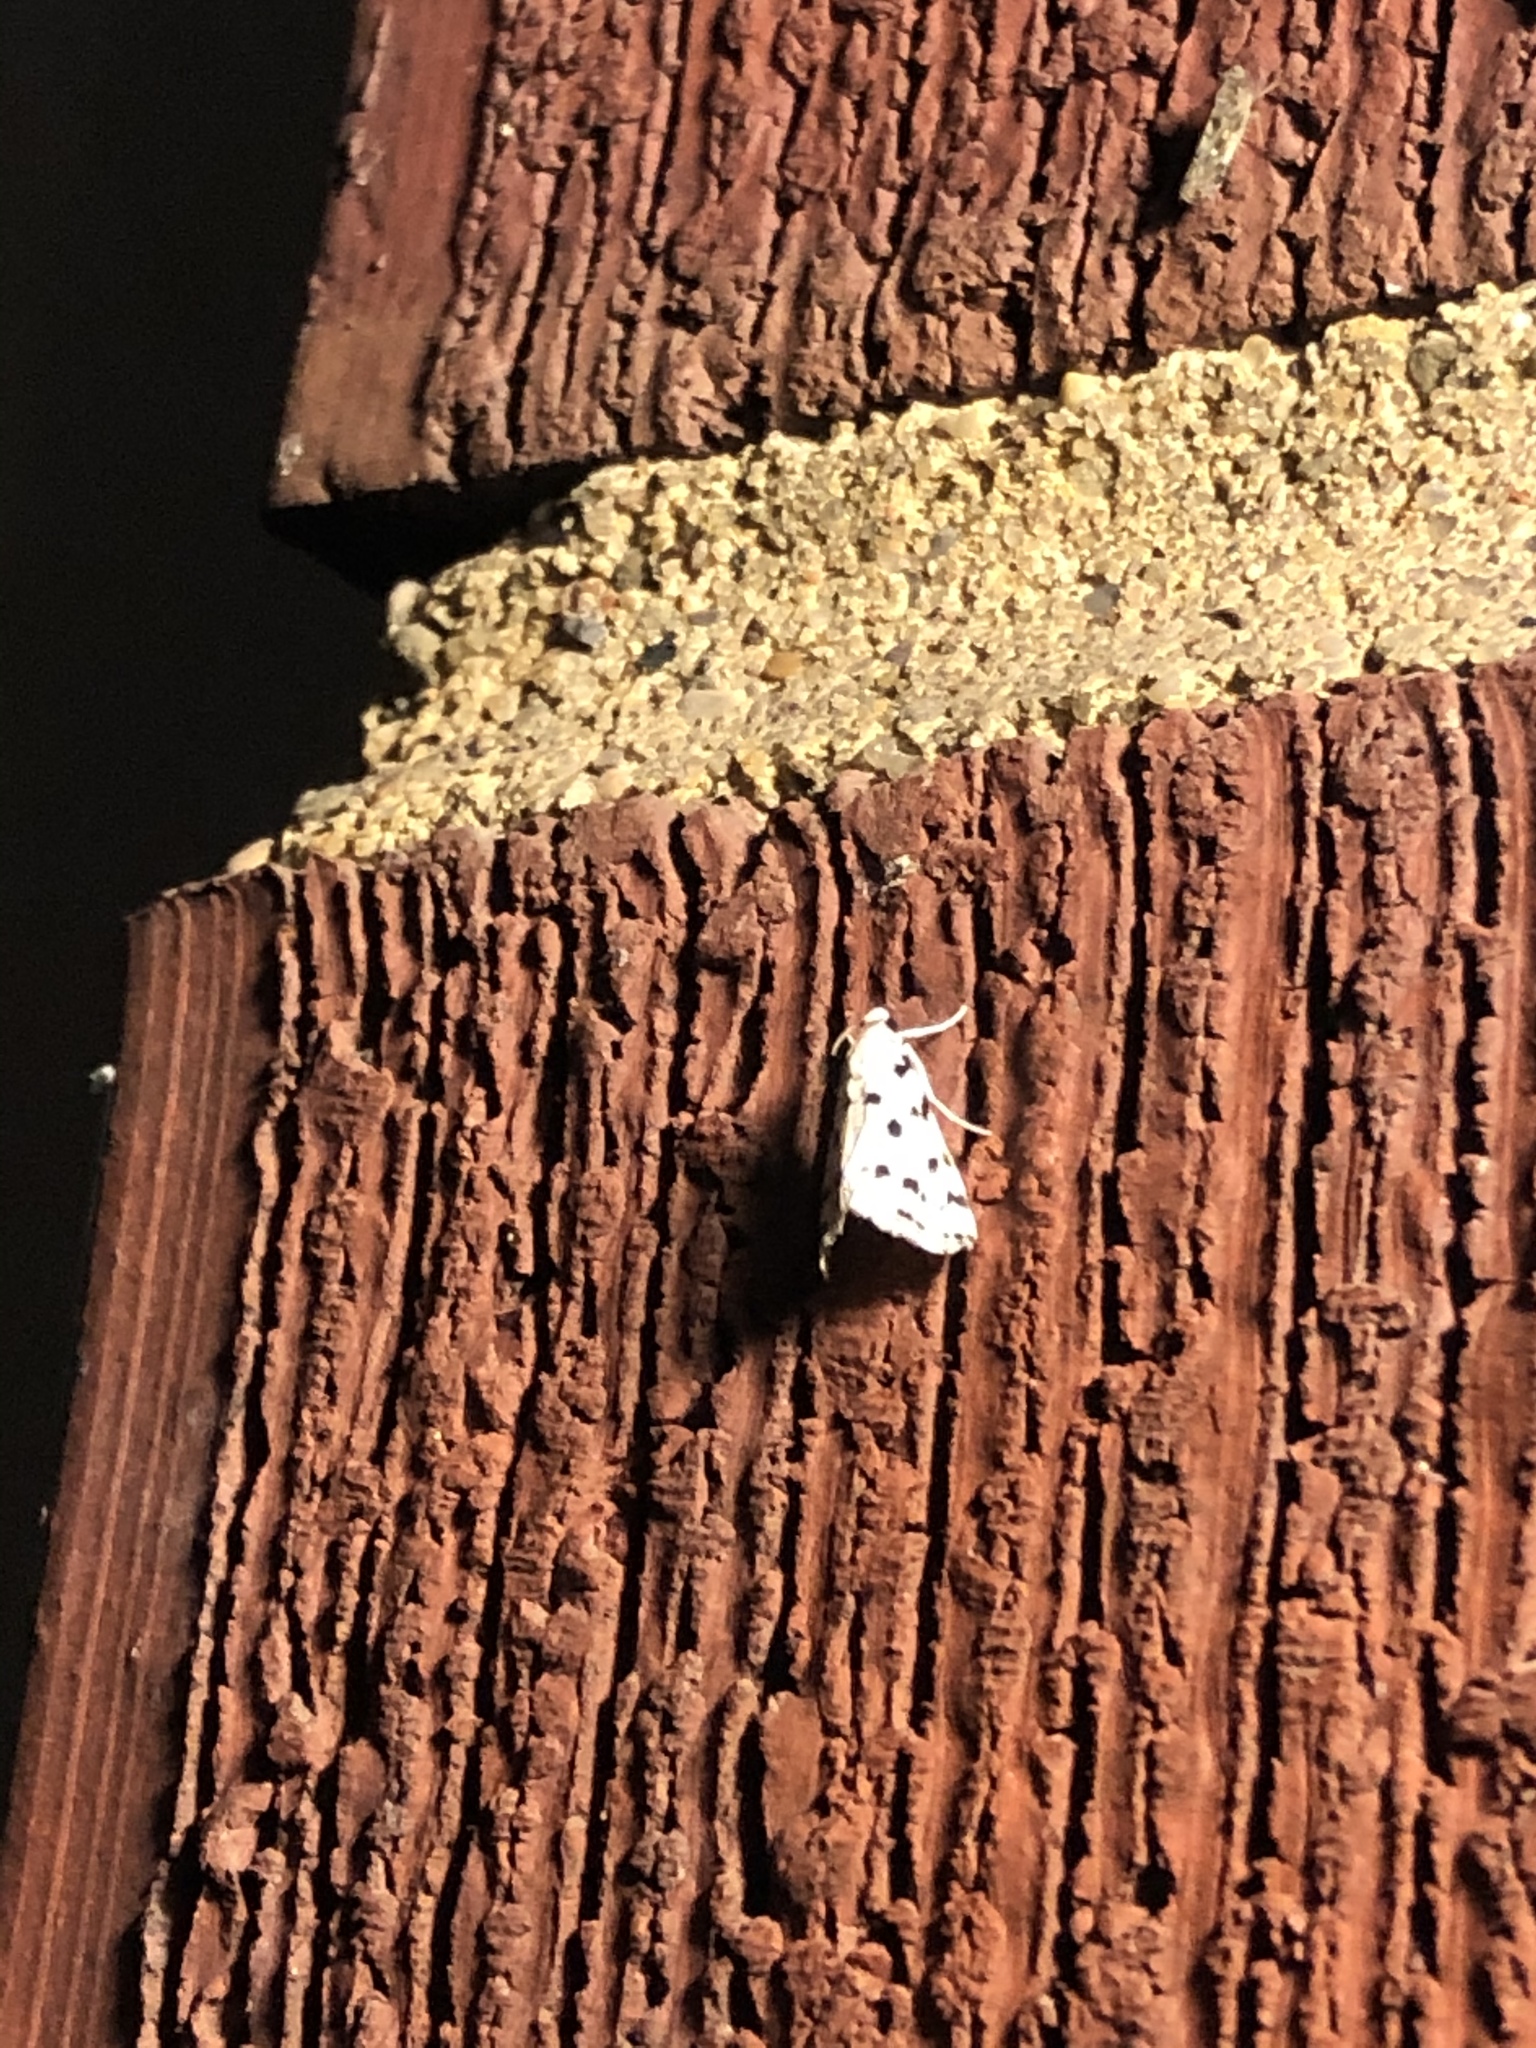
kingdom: Animalia
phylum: Arthropoda
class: Insecta
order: Lepidoptera
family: Crambidae
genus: Eustixia
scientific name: Eustixia pupula
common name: American cabbage pearl
